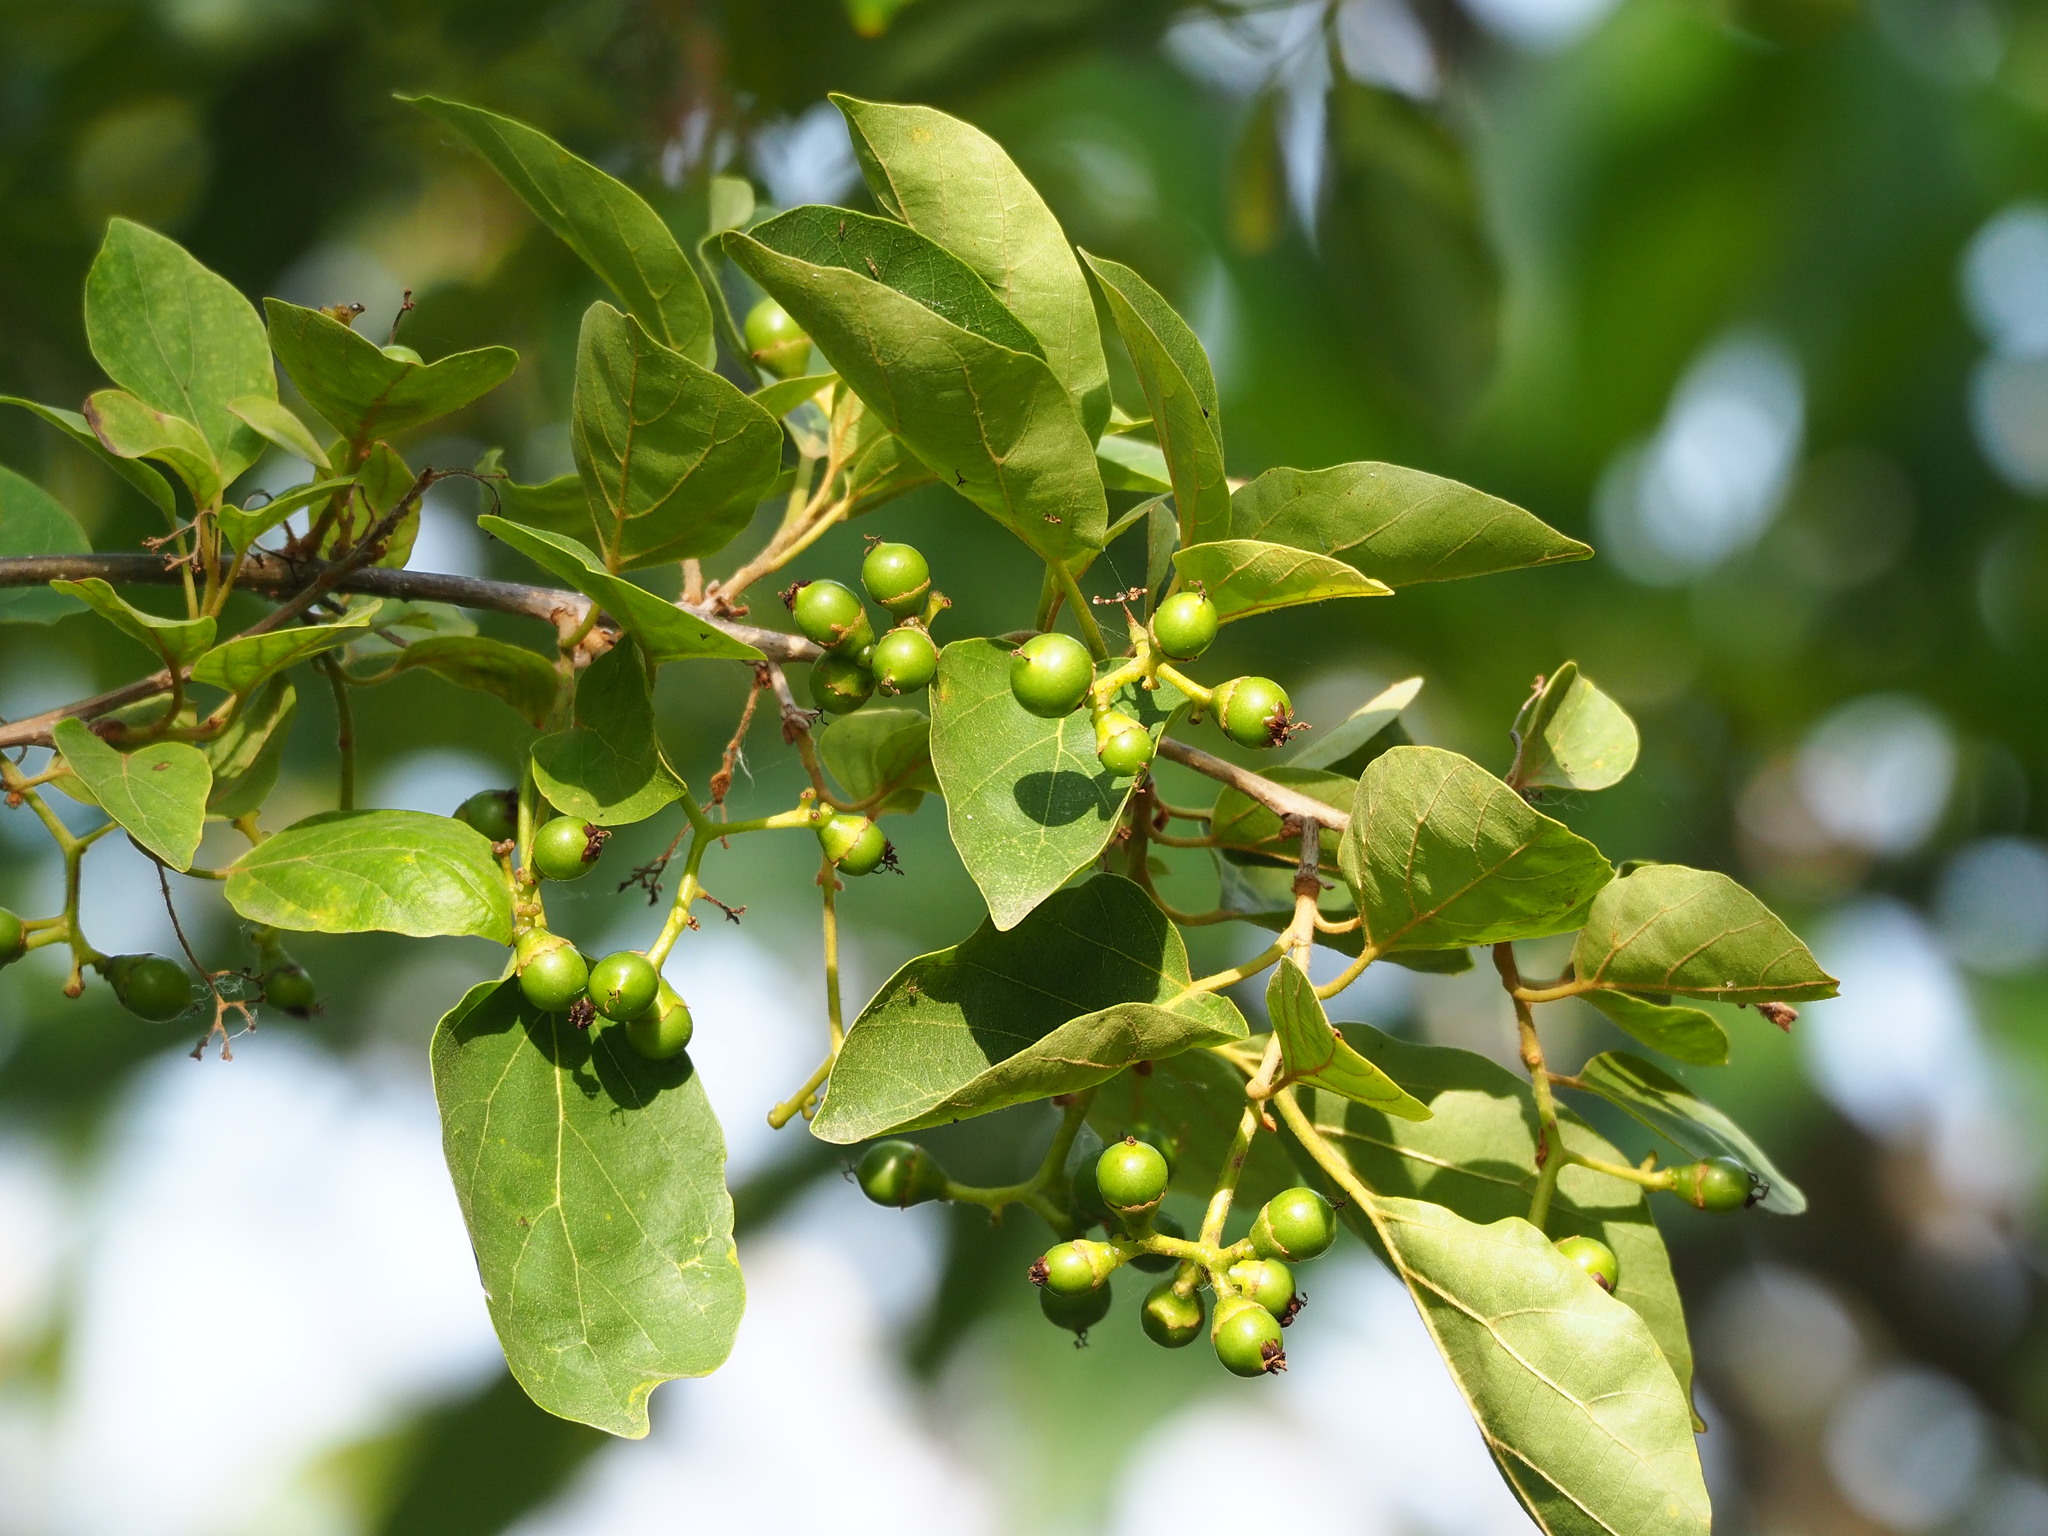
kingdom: Plantae
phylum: Tracheophyta
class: Magnoliopsida
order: Boraginales
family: Cordiaceae
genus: Cordia
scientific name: Cordia dichotoma
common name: Fragrant manjack
